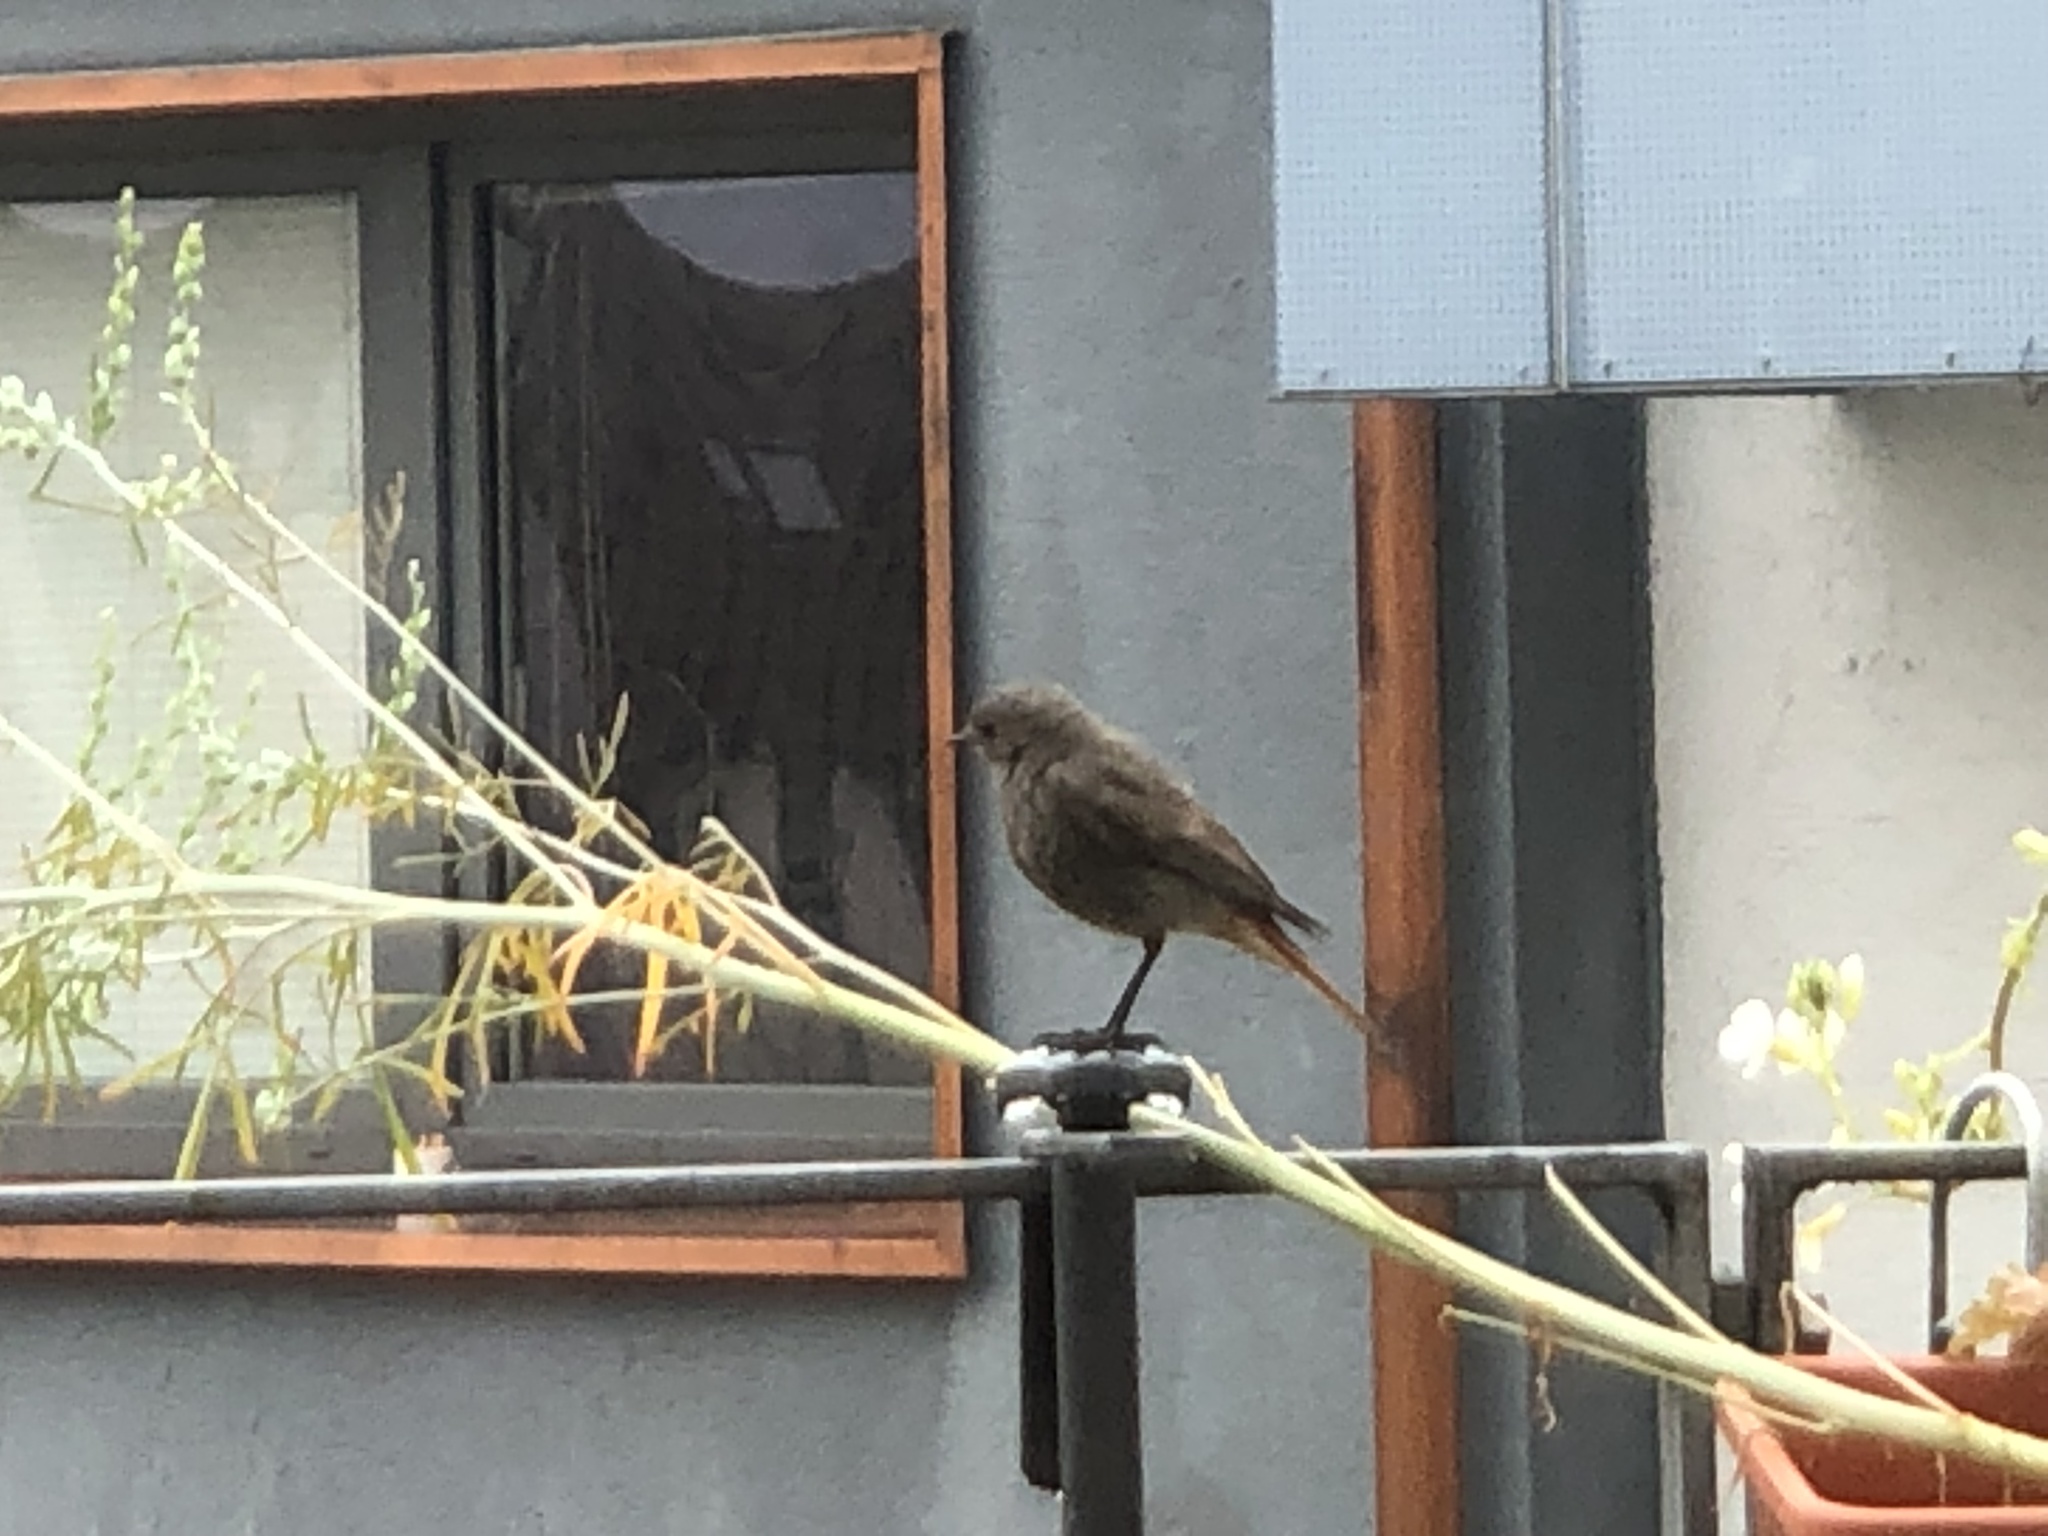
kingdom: Animalia
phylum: Chordata
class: Aves
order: Passeriformes
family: Muscicapidae
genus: Phoenicurus
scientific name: Phoenicurus ochruros
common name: Black redstart
